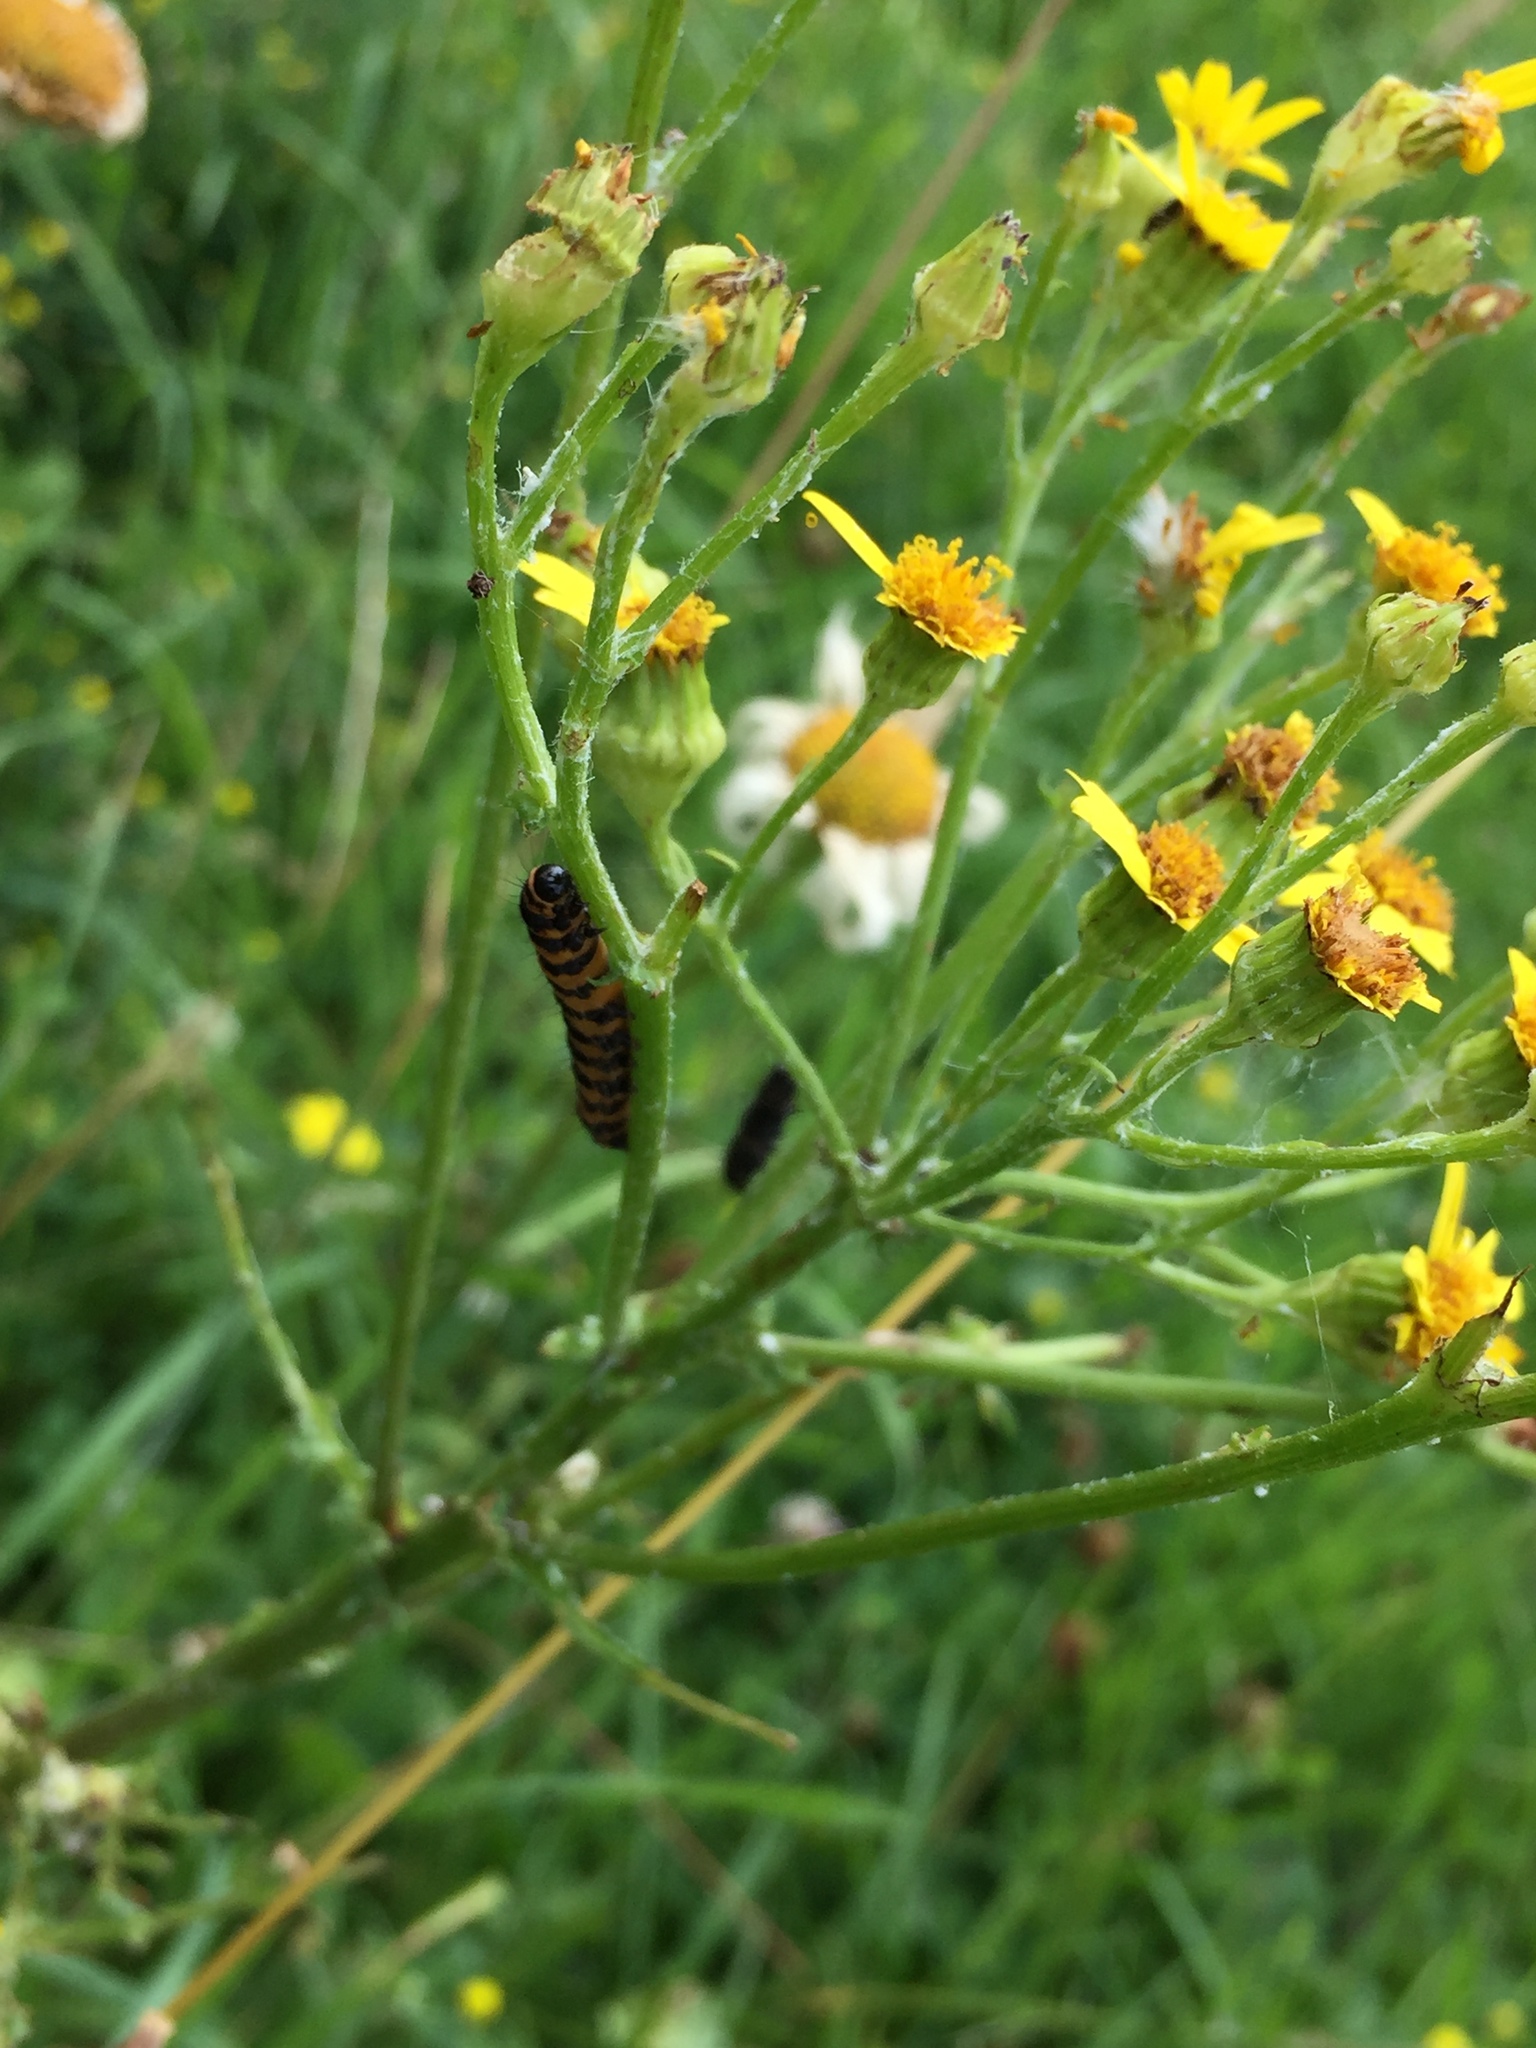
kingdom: Animalia
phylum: Arthropoda
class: Insecta
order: Lepidoptera
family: Erebidae
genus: Tyria
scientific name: Tyria jacobaeae
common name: Cinnabar
